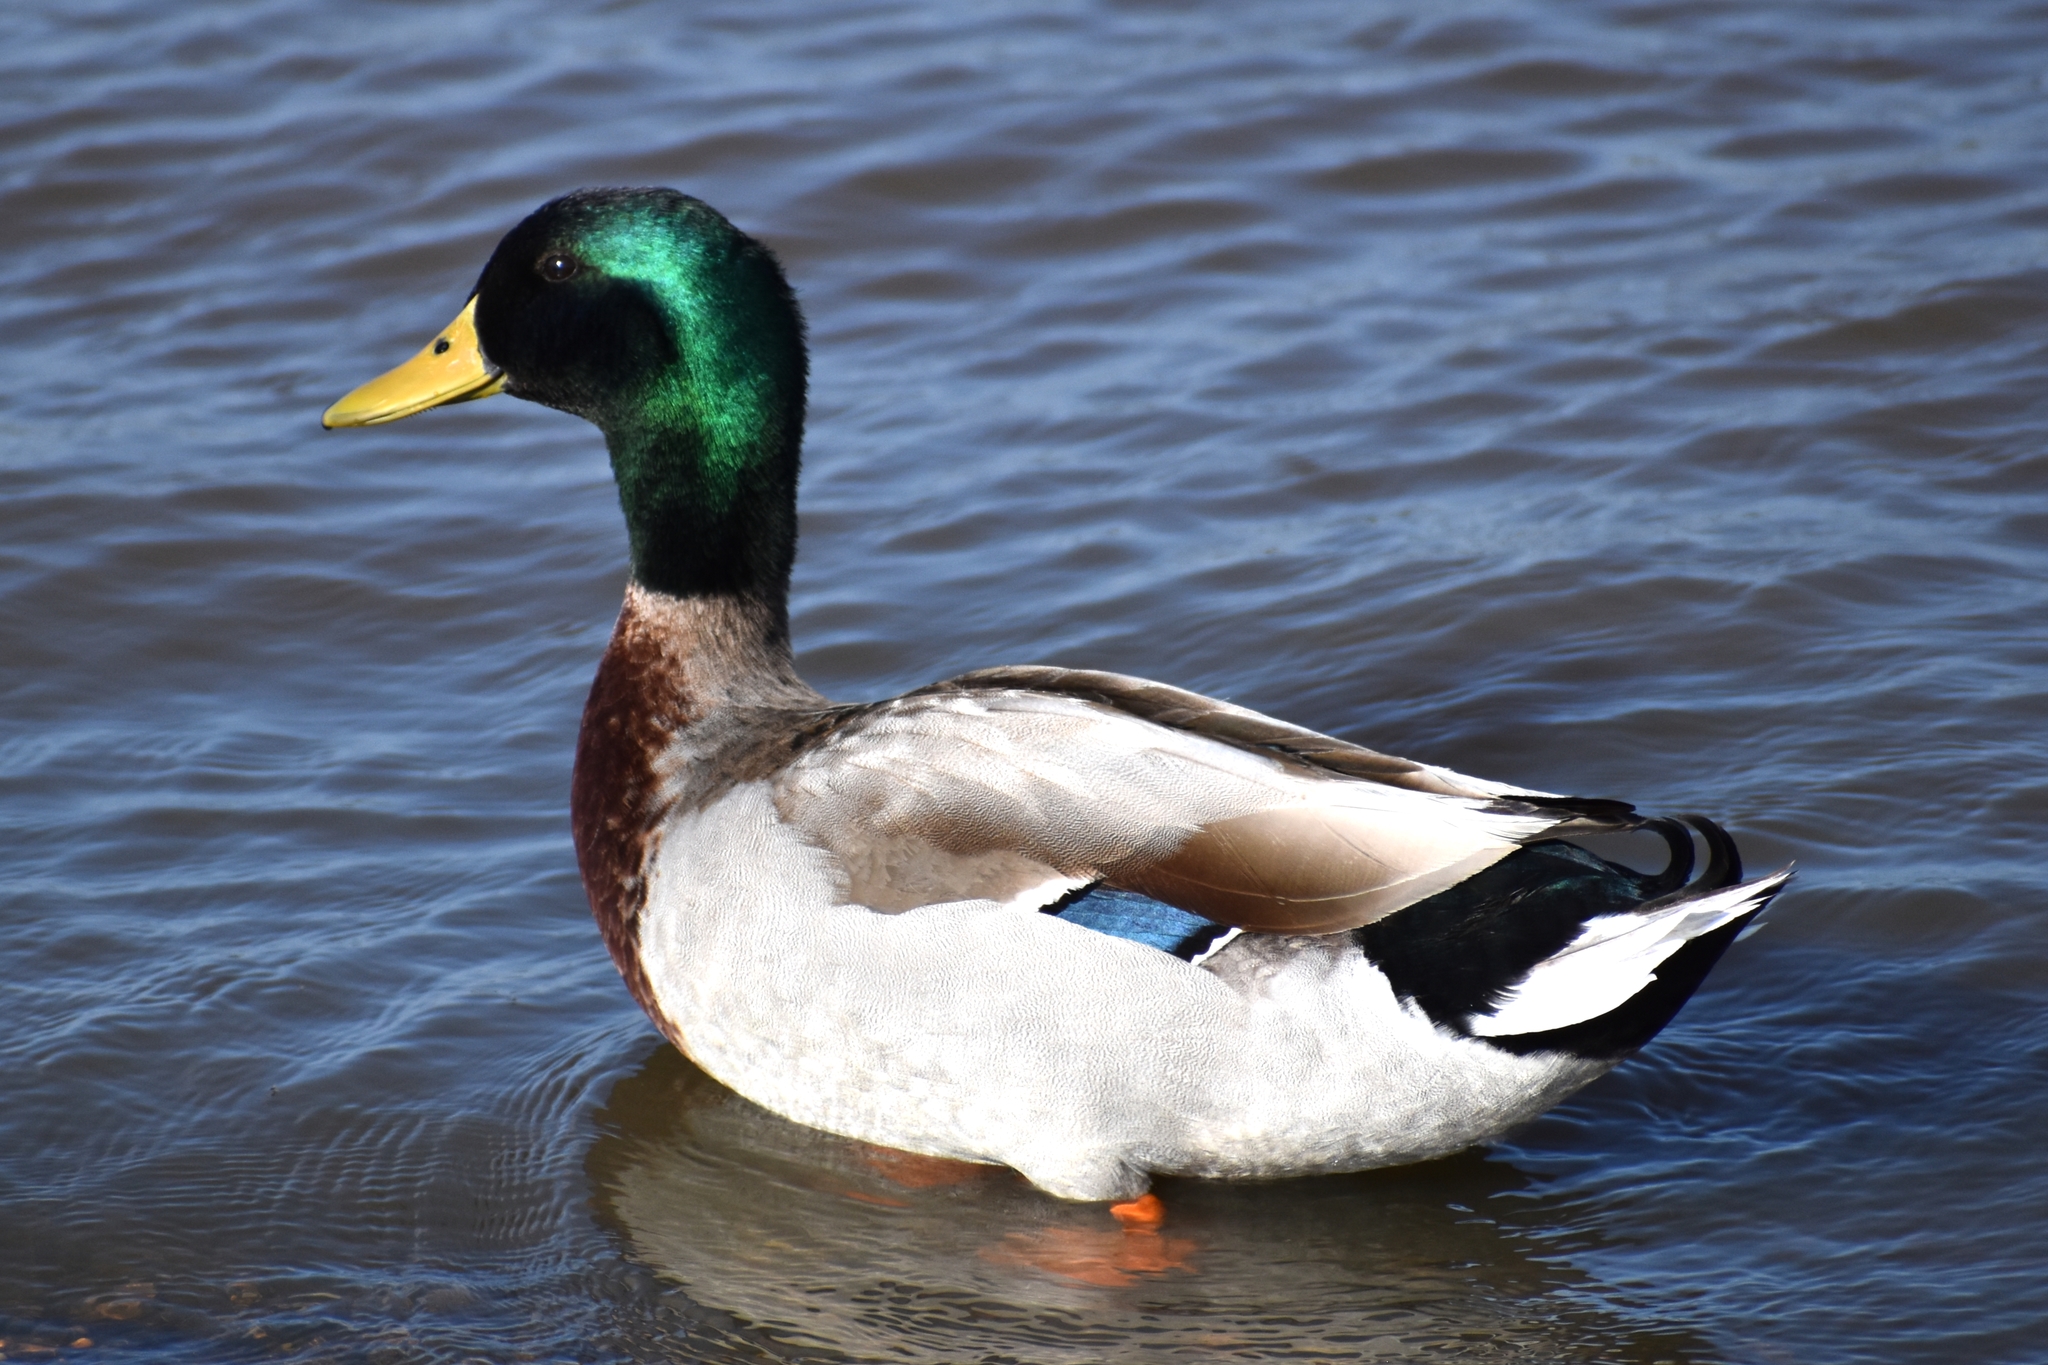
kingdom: Animalia
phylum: Chordata
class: Aves
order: Anseriformes
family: Anatidae
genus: Anas
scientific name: Anas platyrhynchos
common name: Mallard
